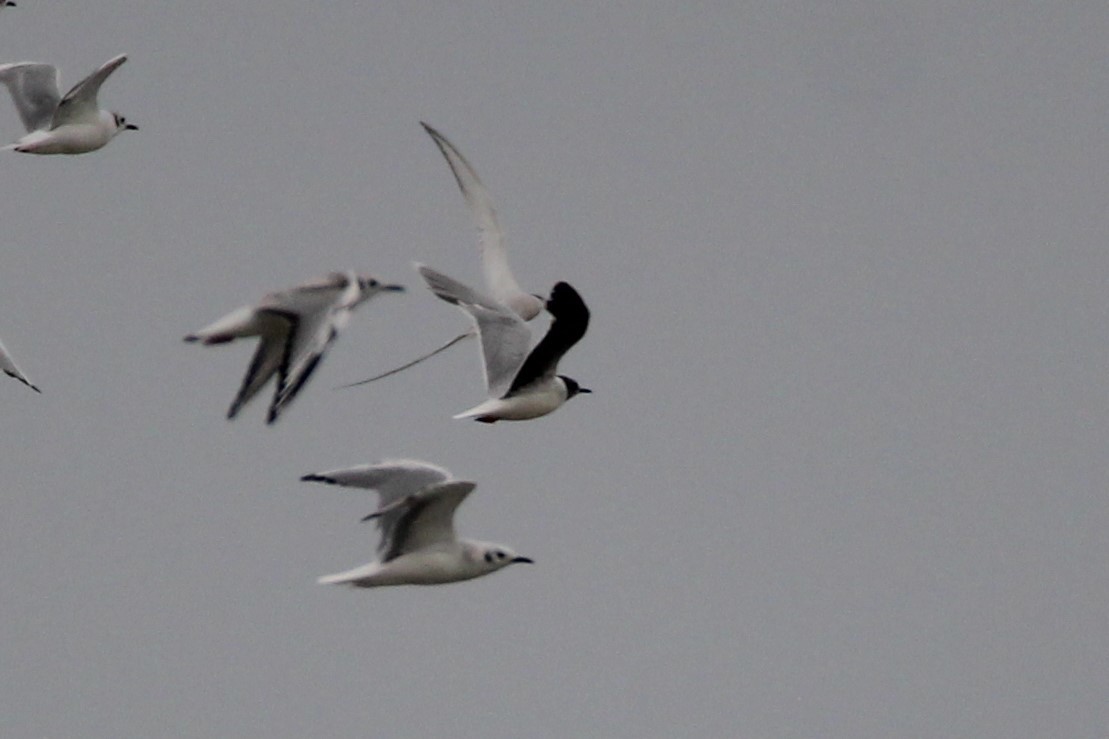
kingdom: Animalia
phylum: Chordata
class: Aves
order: Charadriiformes
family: Laridae
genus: Hydrocoloeus
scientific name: Hydrocoloeus minutus
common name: Little gull
